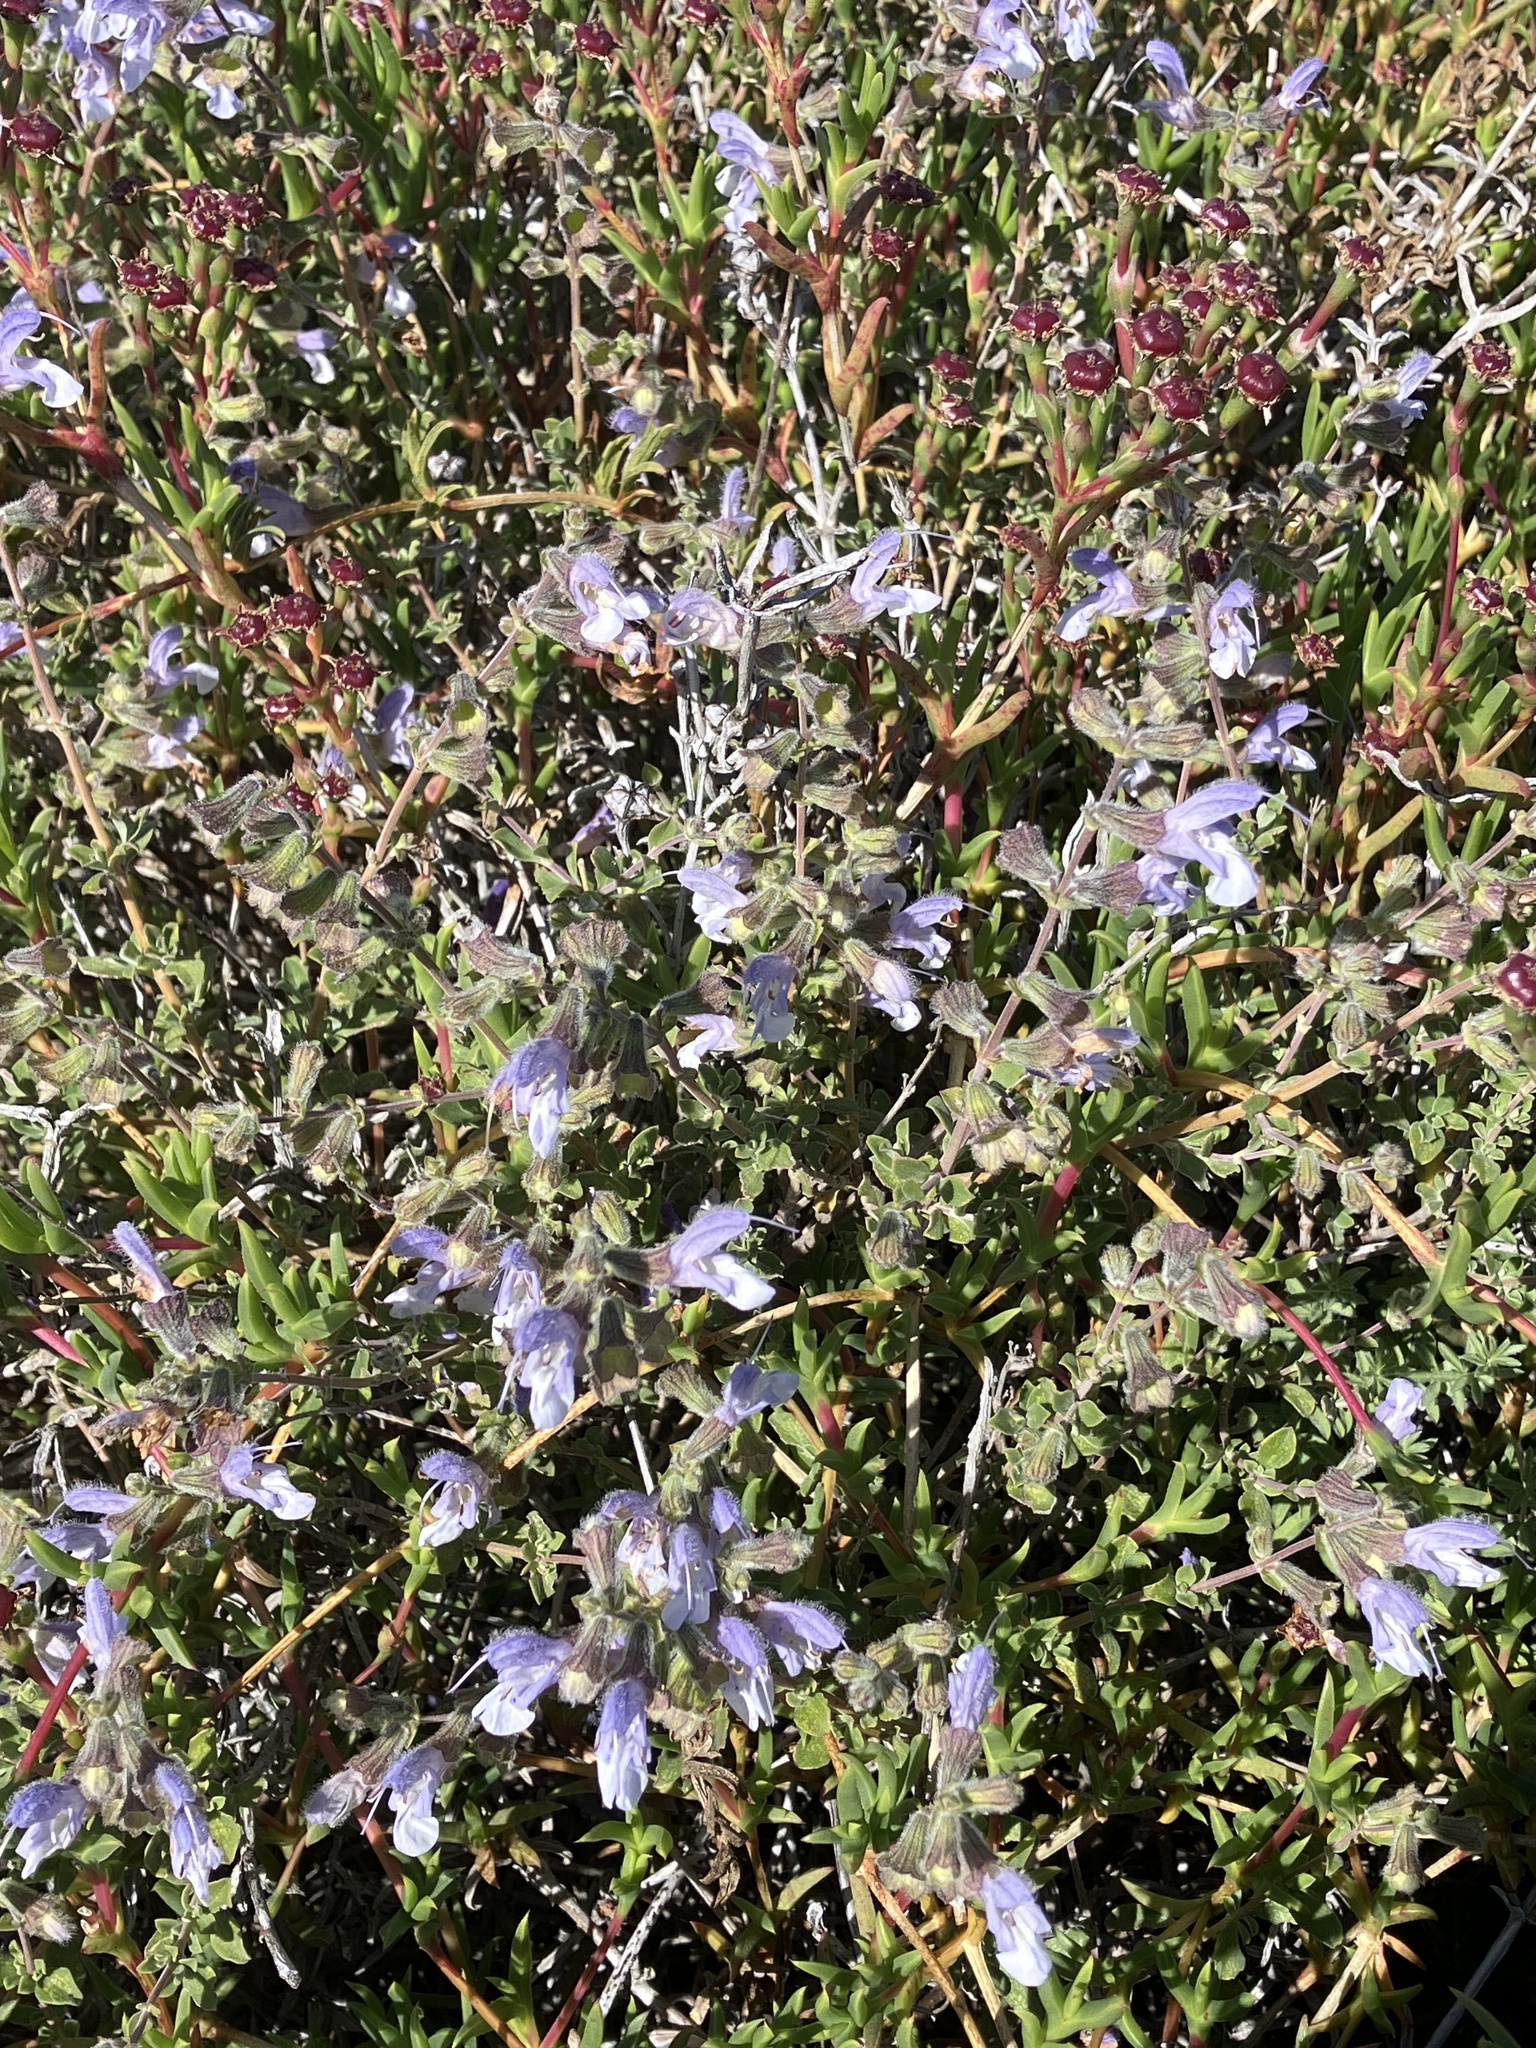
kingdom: Plantae
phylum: Tracheophyta
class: Magnoliopsida
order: Lamiales
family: Lamiaceae
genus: Salvia
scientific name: Salvia africana
